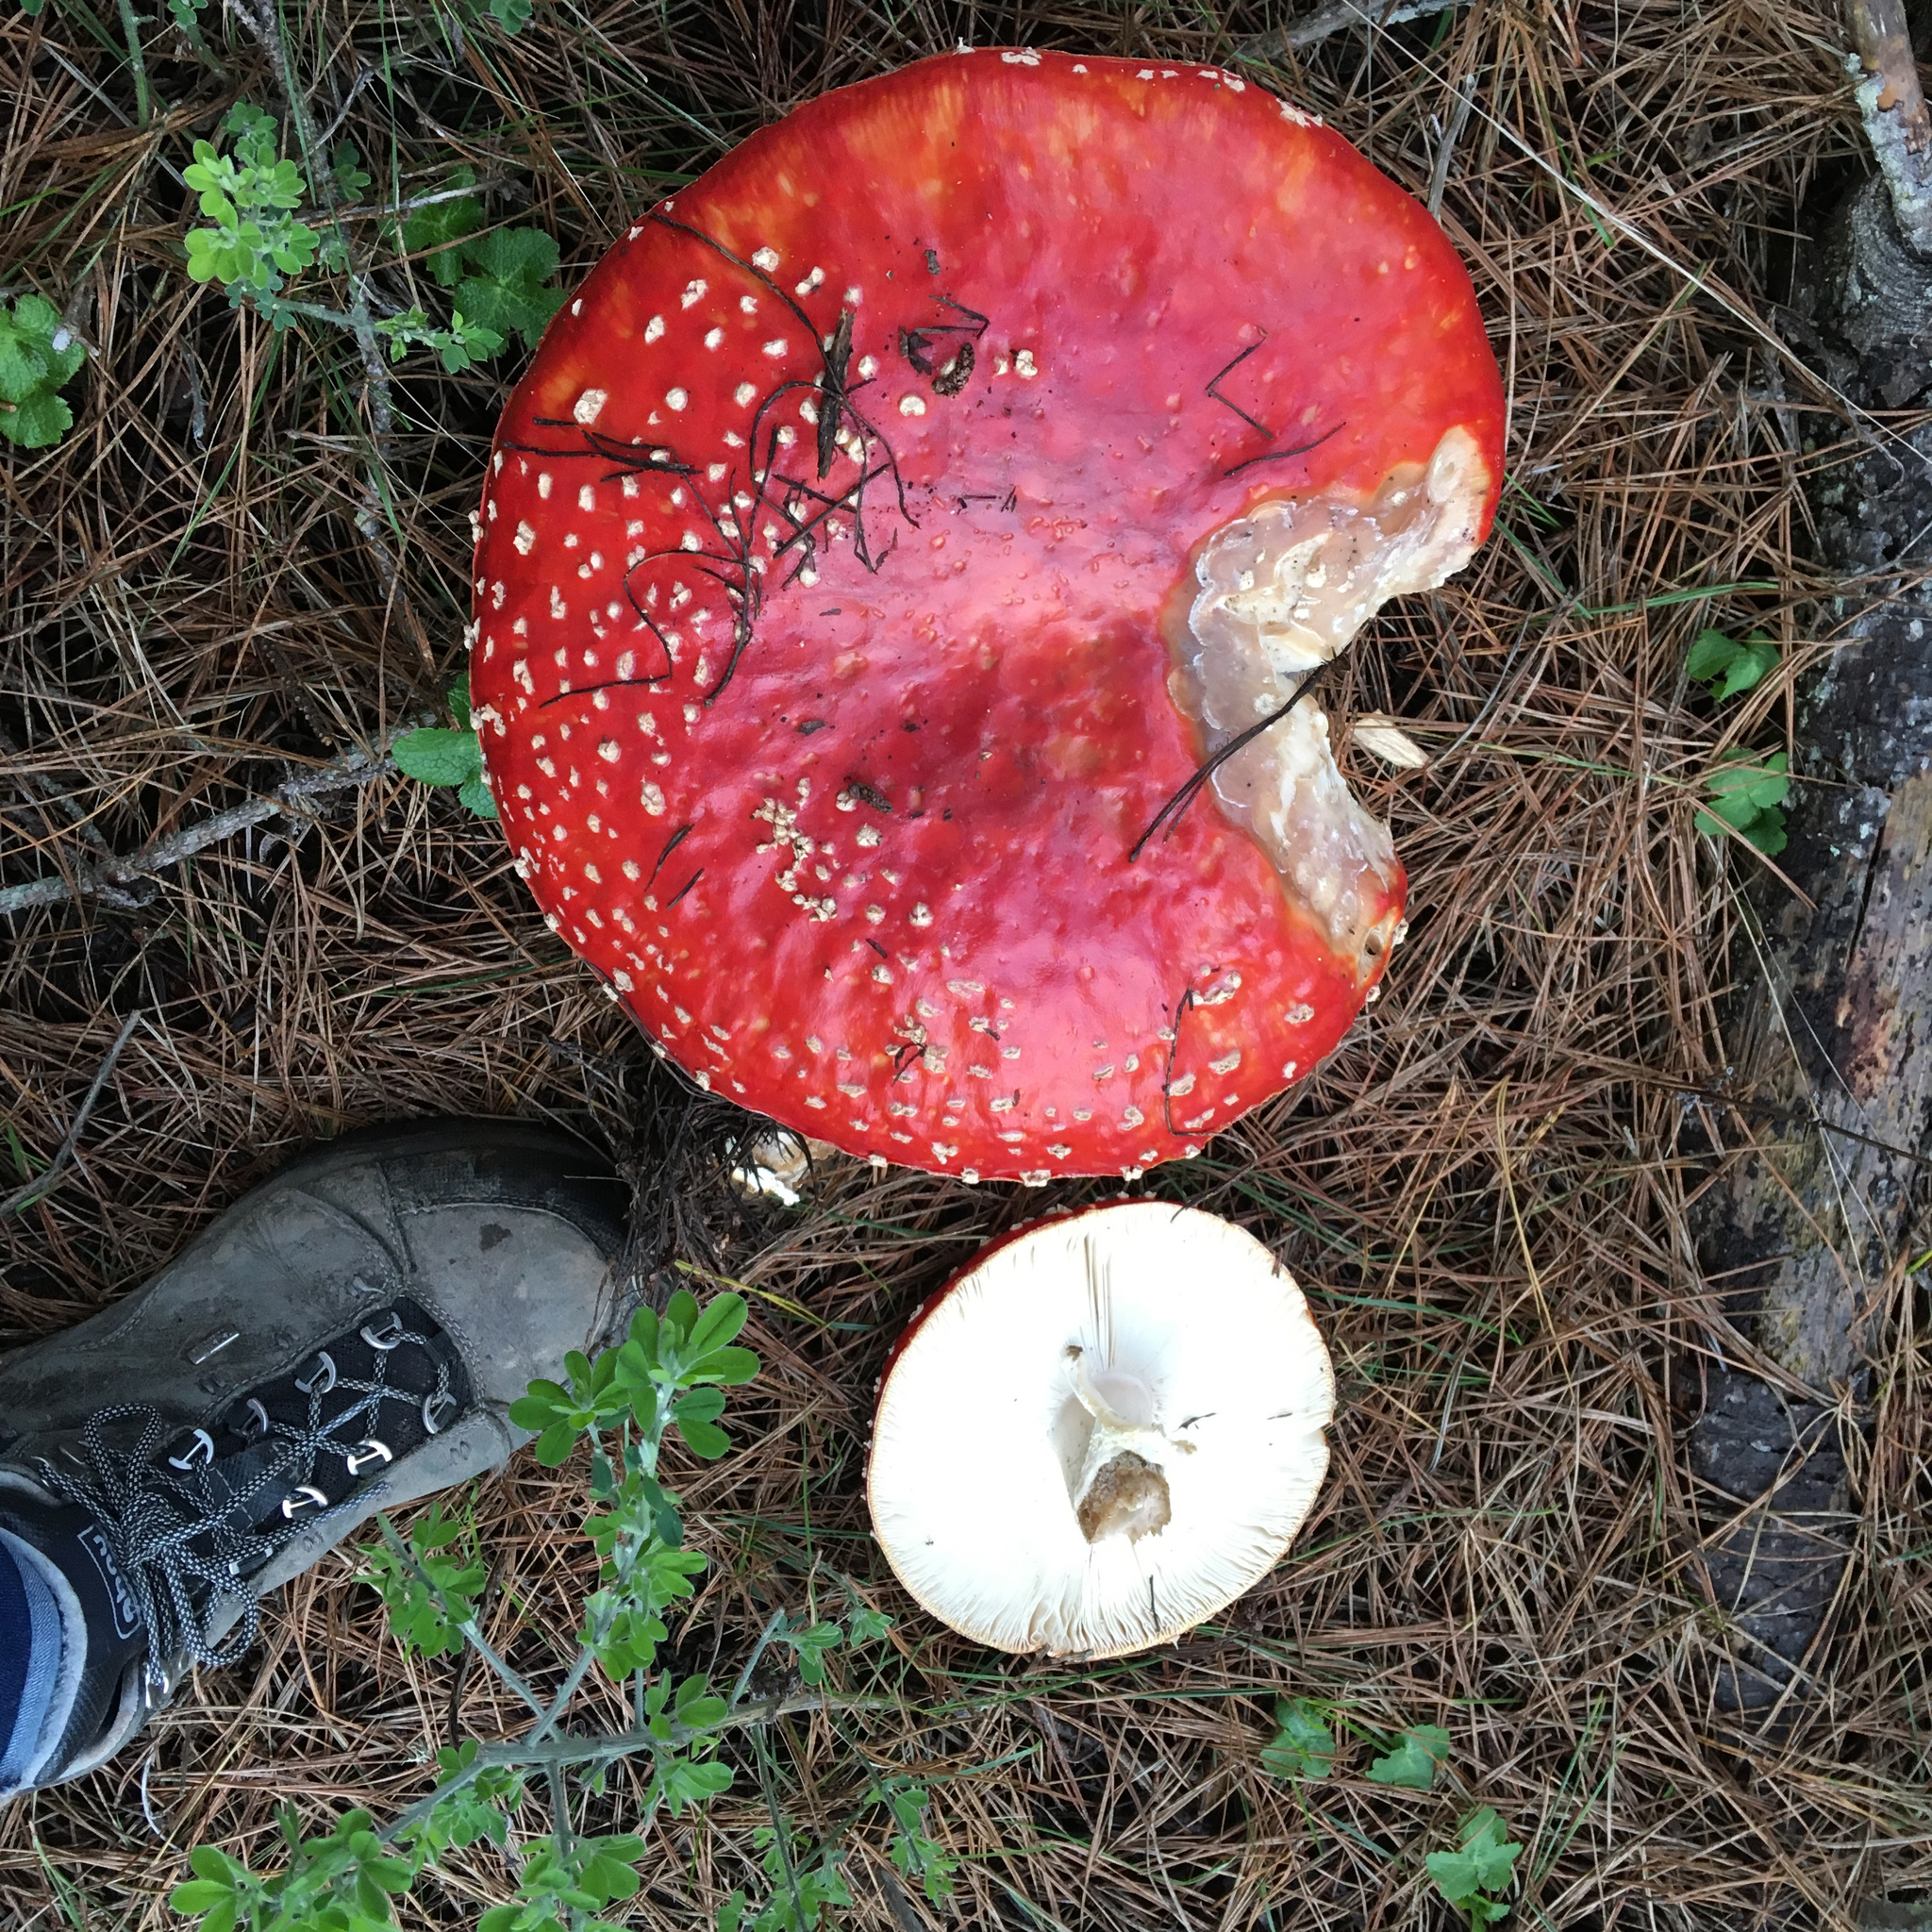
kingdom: Fungi
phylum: Basidiomycota
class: Agaricomycetes
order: Agaricales
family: Amanitaceae
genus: Amanita
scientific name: Amanita muscaria
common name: Fly agaric
